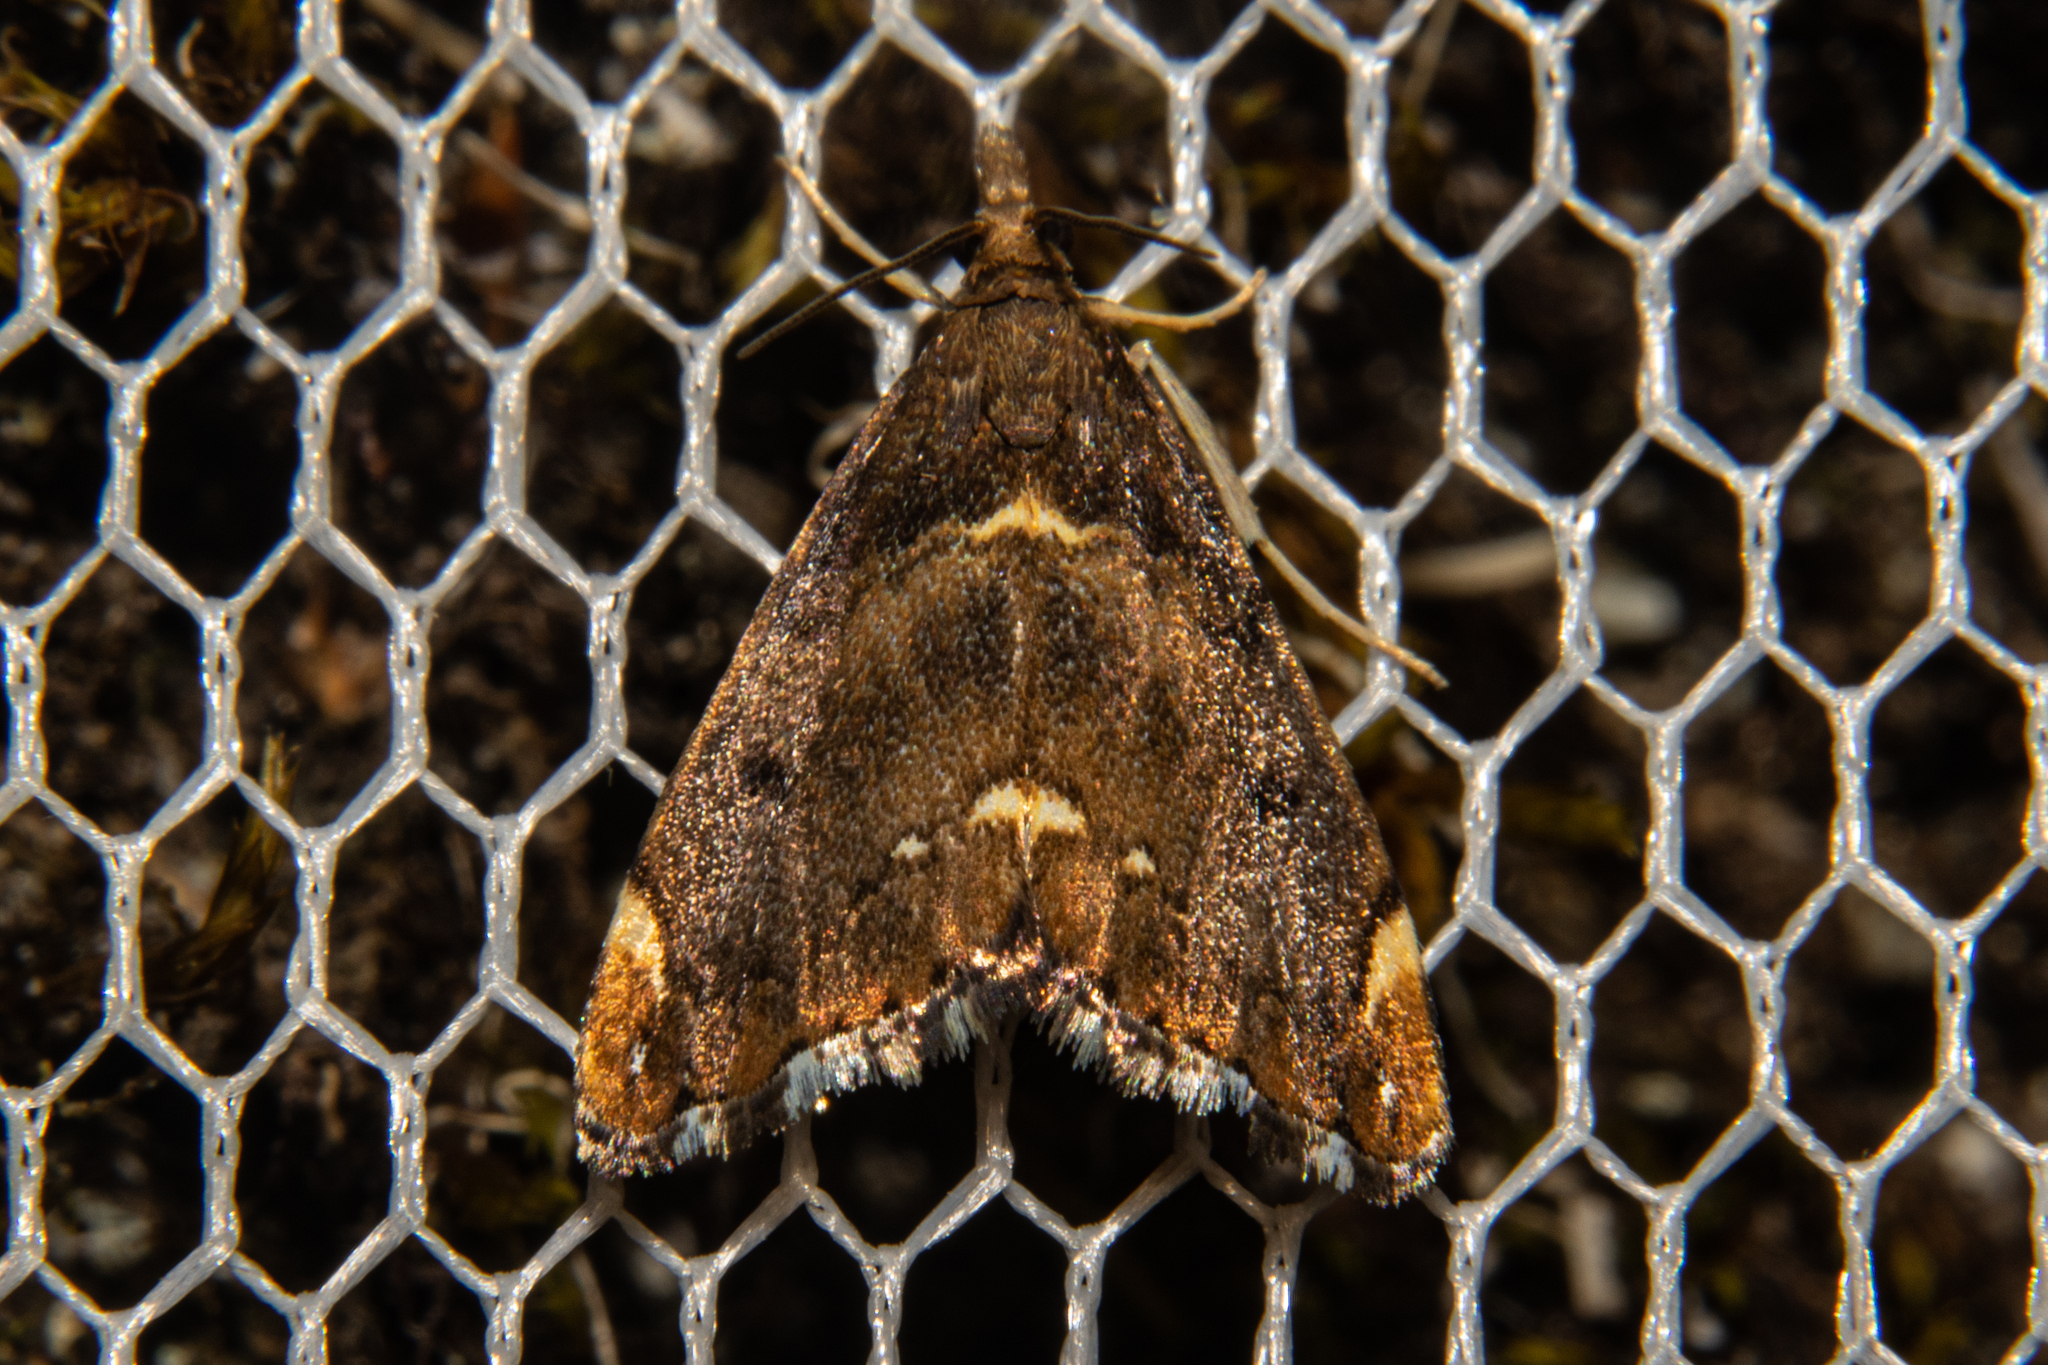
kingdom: Animalia
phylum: Arthropoda
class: Insecta
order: Lepidoptera
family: Crambidae
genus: Glaucocharis
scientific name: Glaucocharis pyrsophanes
